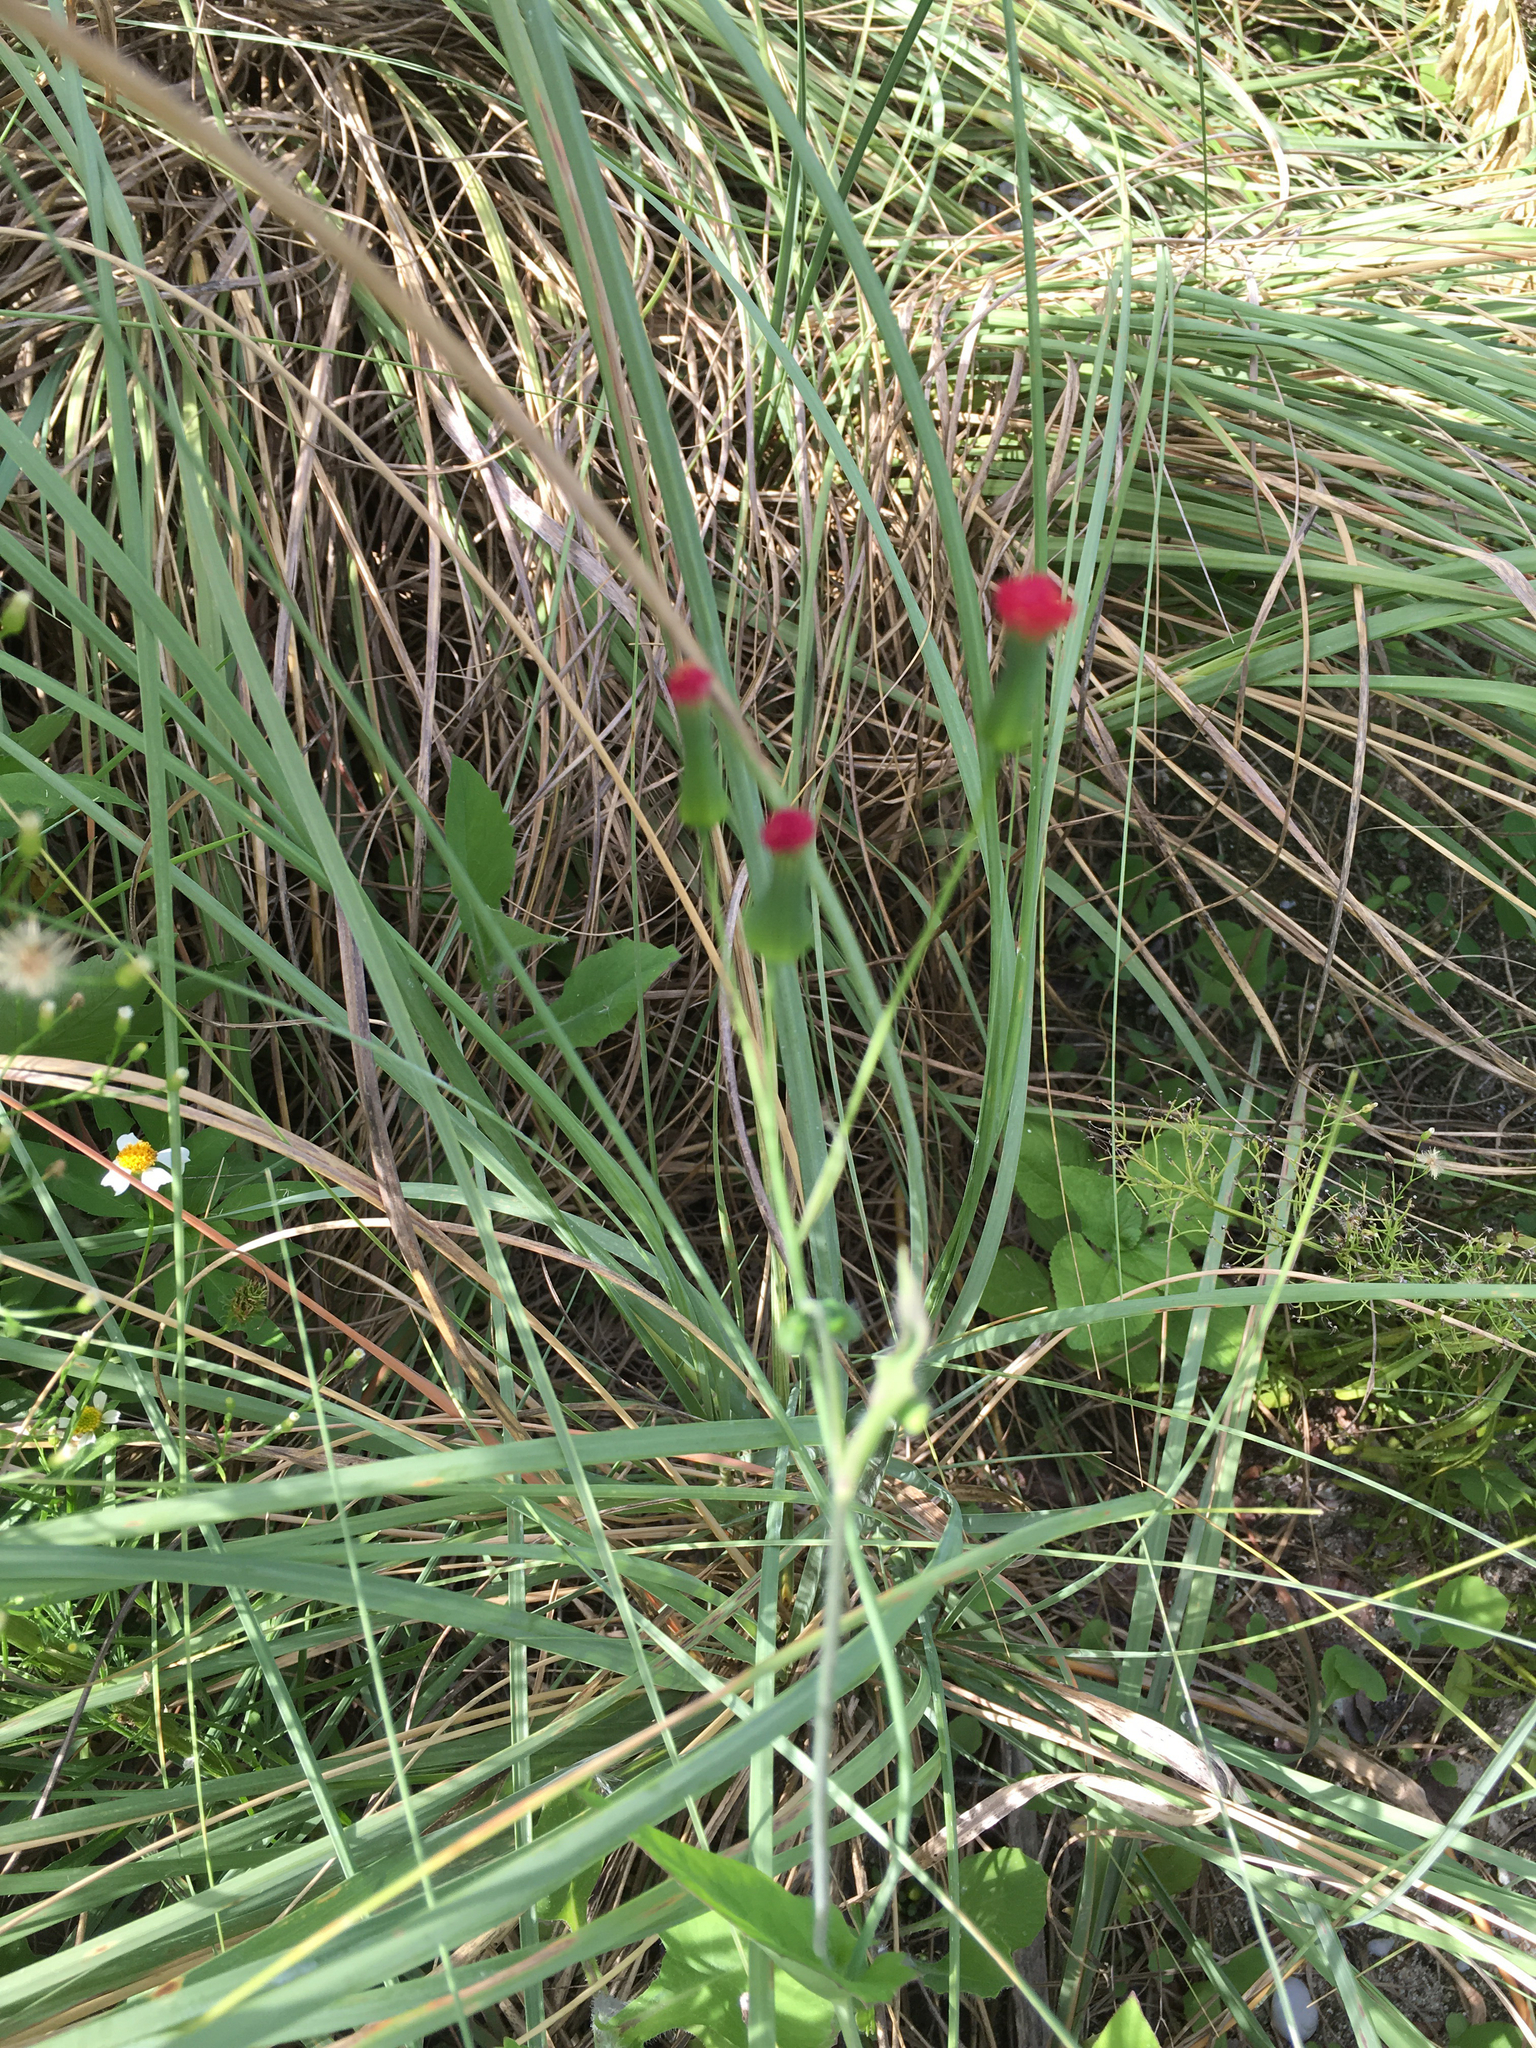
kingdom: Plantae
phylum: Tracheophyta
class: Magnoliopsida
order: Asterales
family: Asteraceae
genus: Emilia
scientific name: Emilia fosbergii
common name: Florida tasselflower
